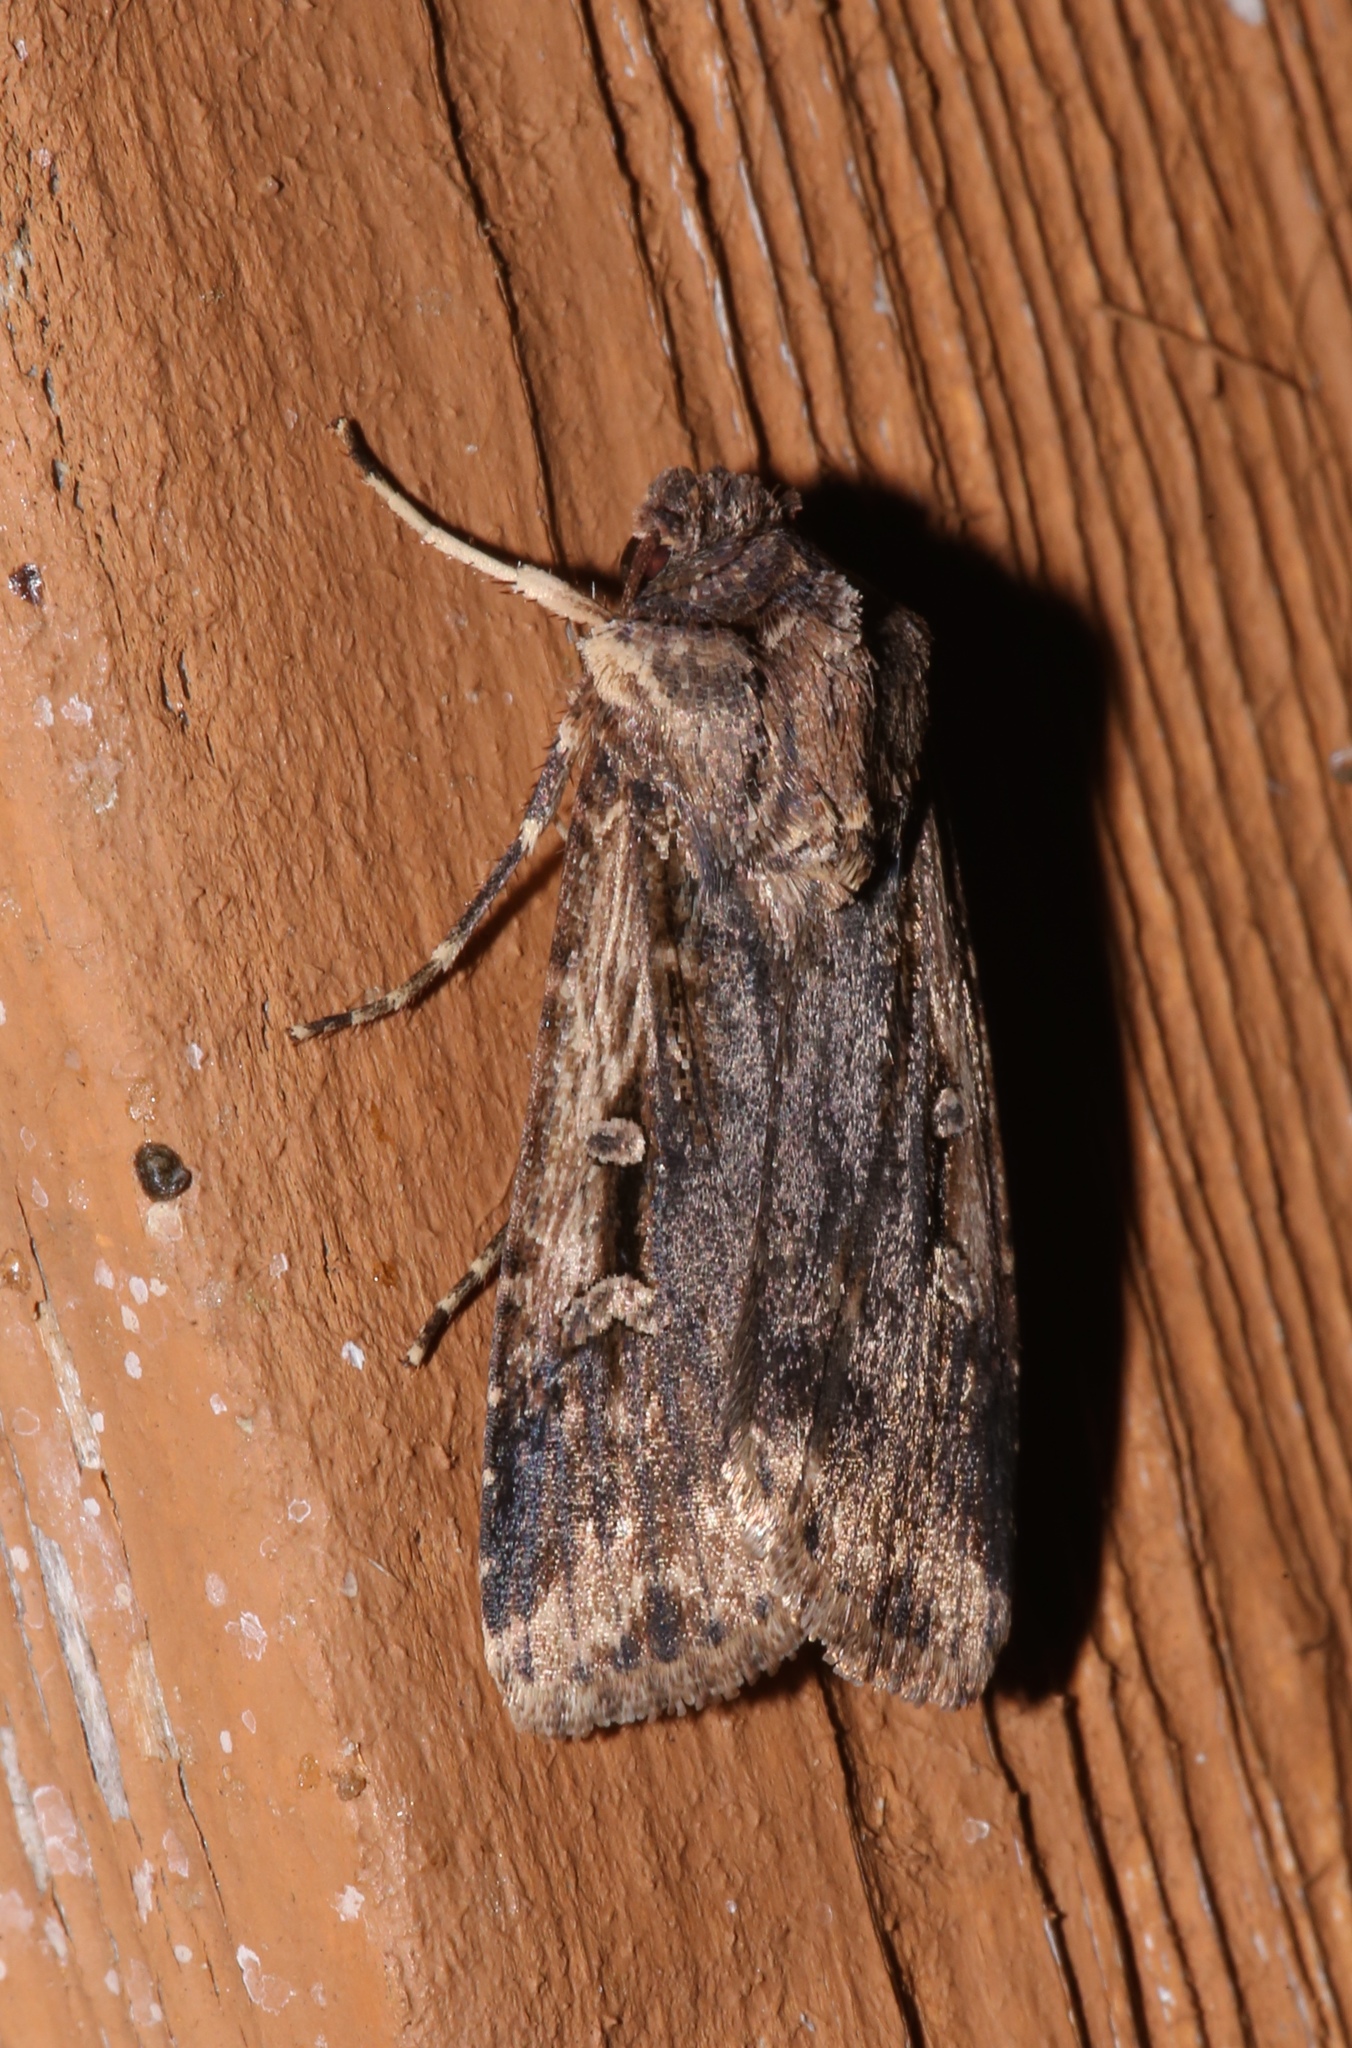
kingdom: Animalia
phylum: Arthropoda
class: Insecta
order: Lepidoptera
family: Noctuidae
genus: Feltia
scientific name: Feltia subterranea
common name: Granulate cutworm
